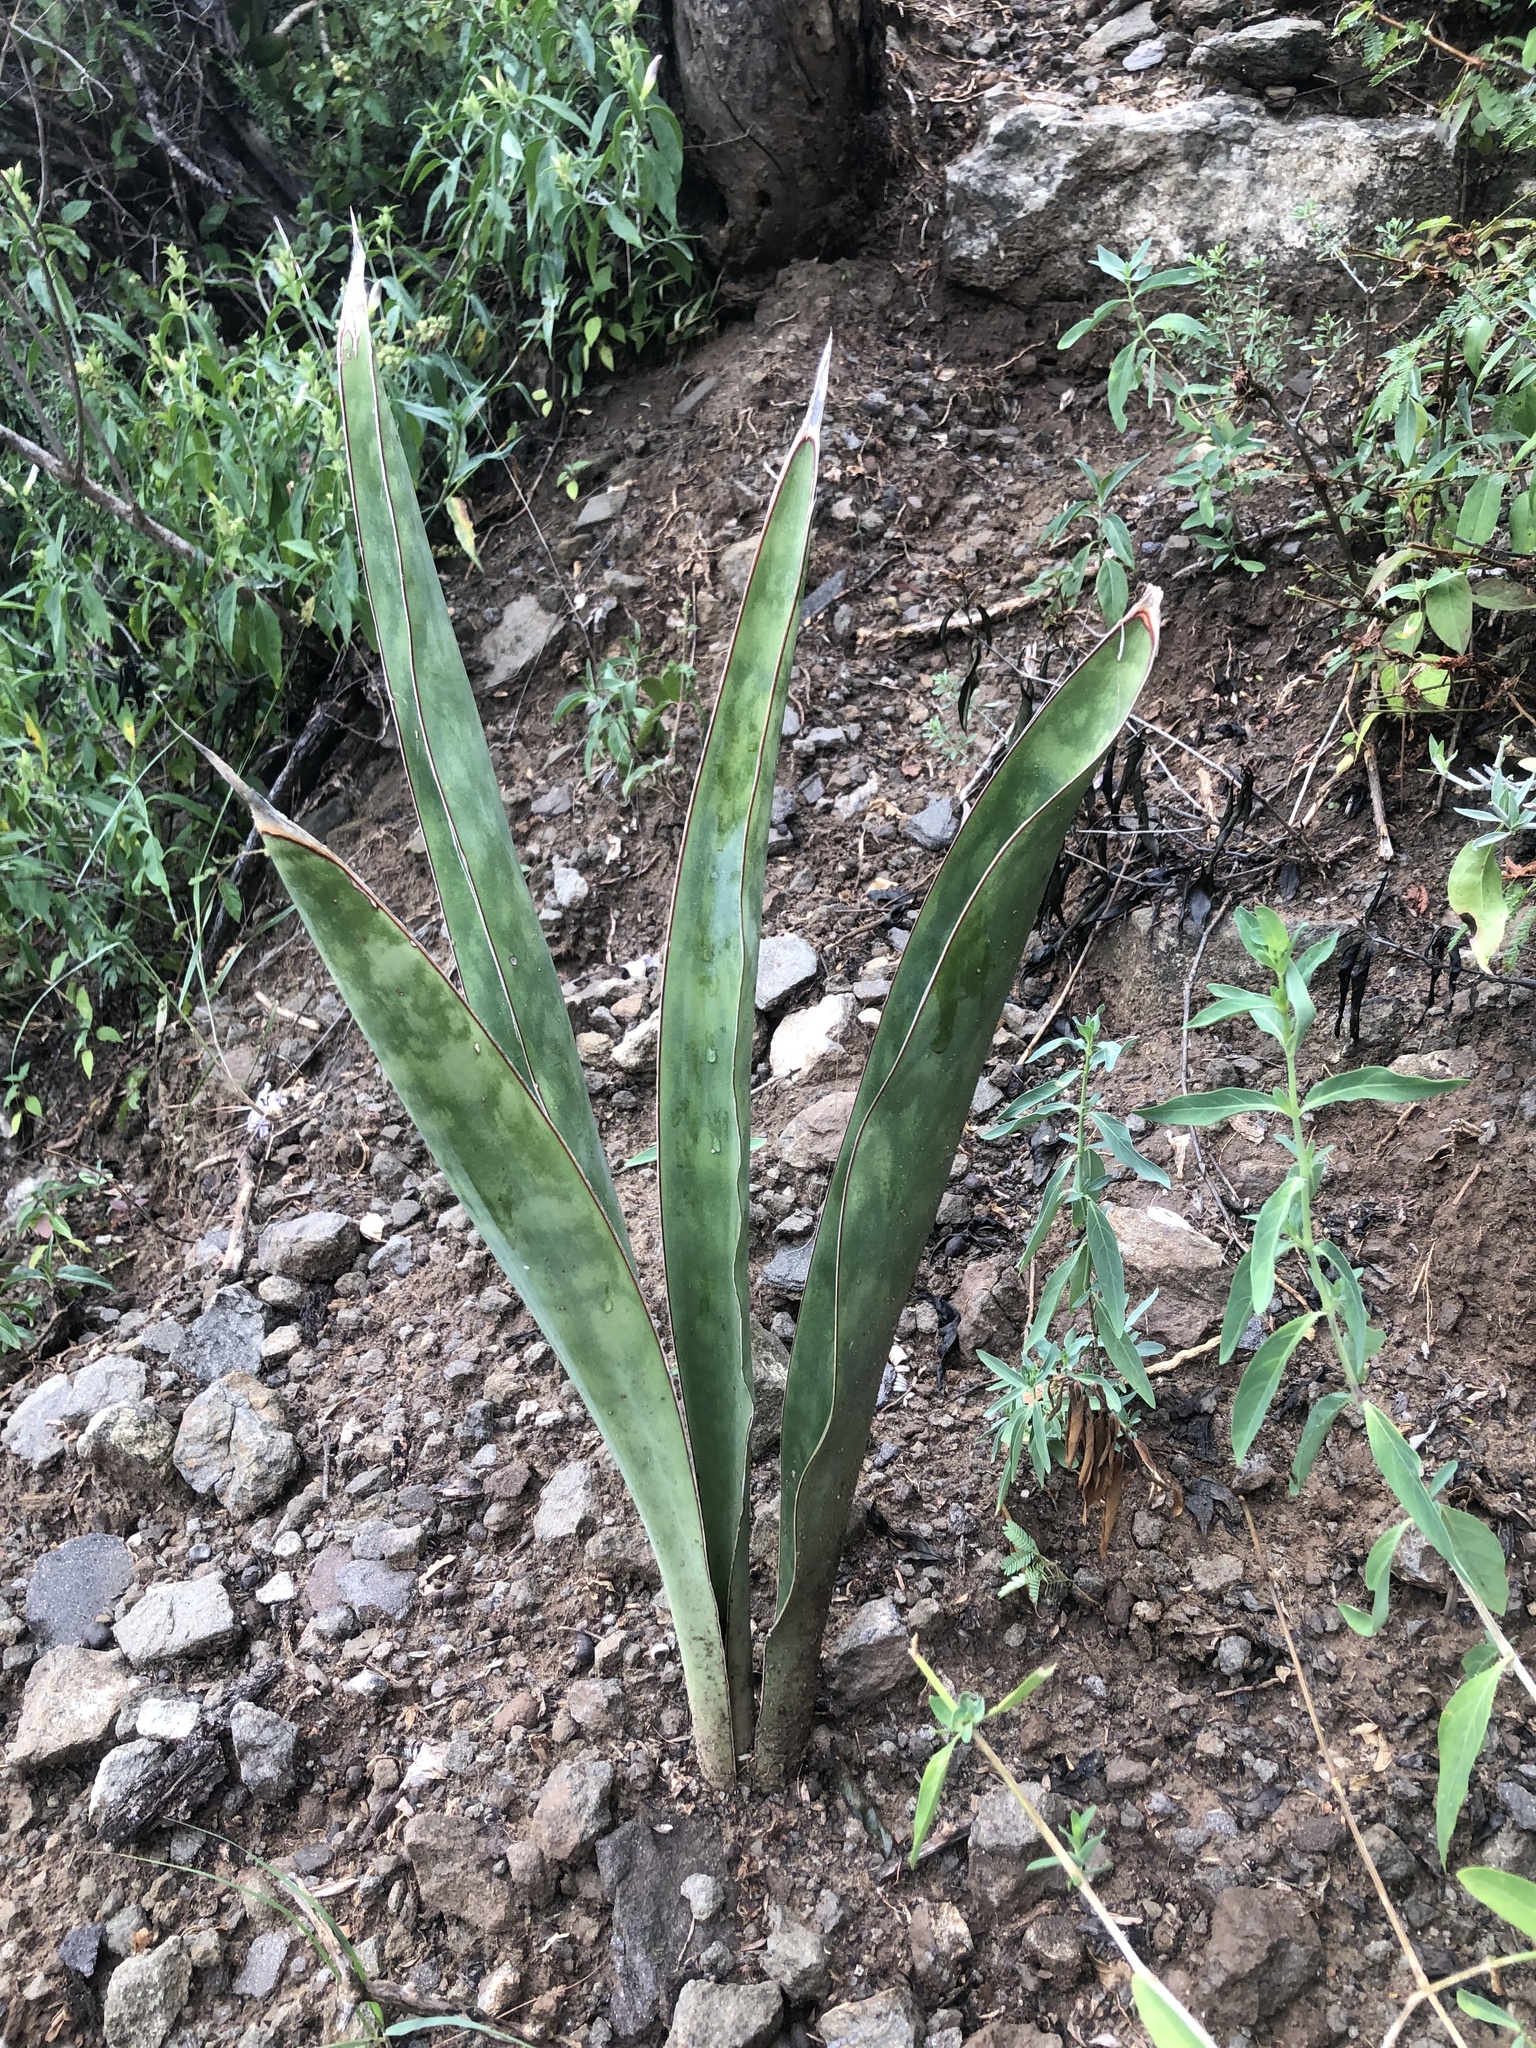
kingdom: Plantae
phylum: Tracheophyta
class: Liliopsida
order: Asparagales
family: Asparagaceae
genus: Dracaena
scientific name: Dracaena hyacinthoides
